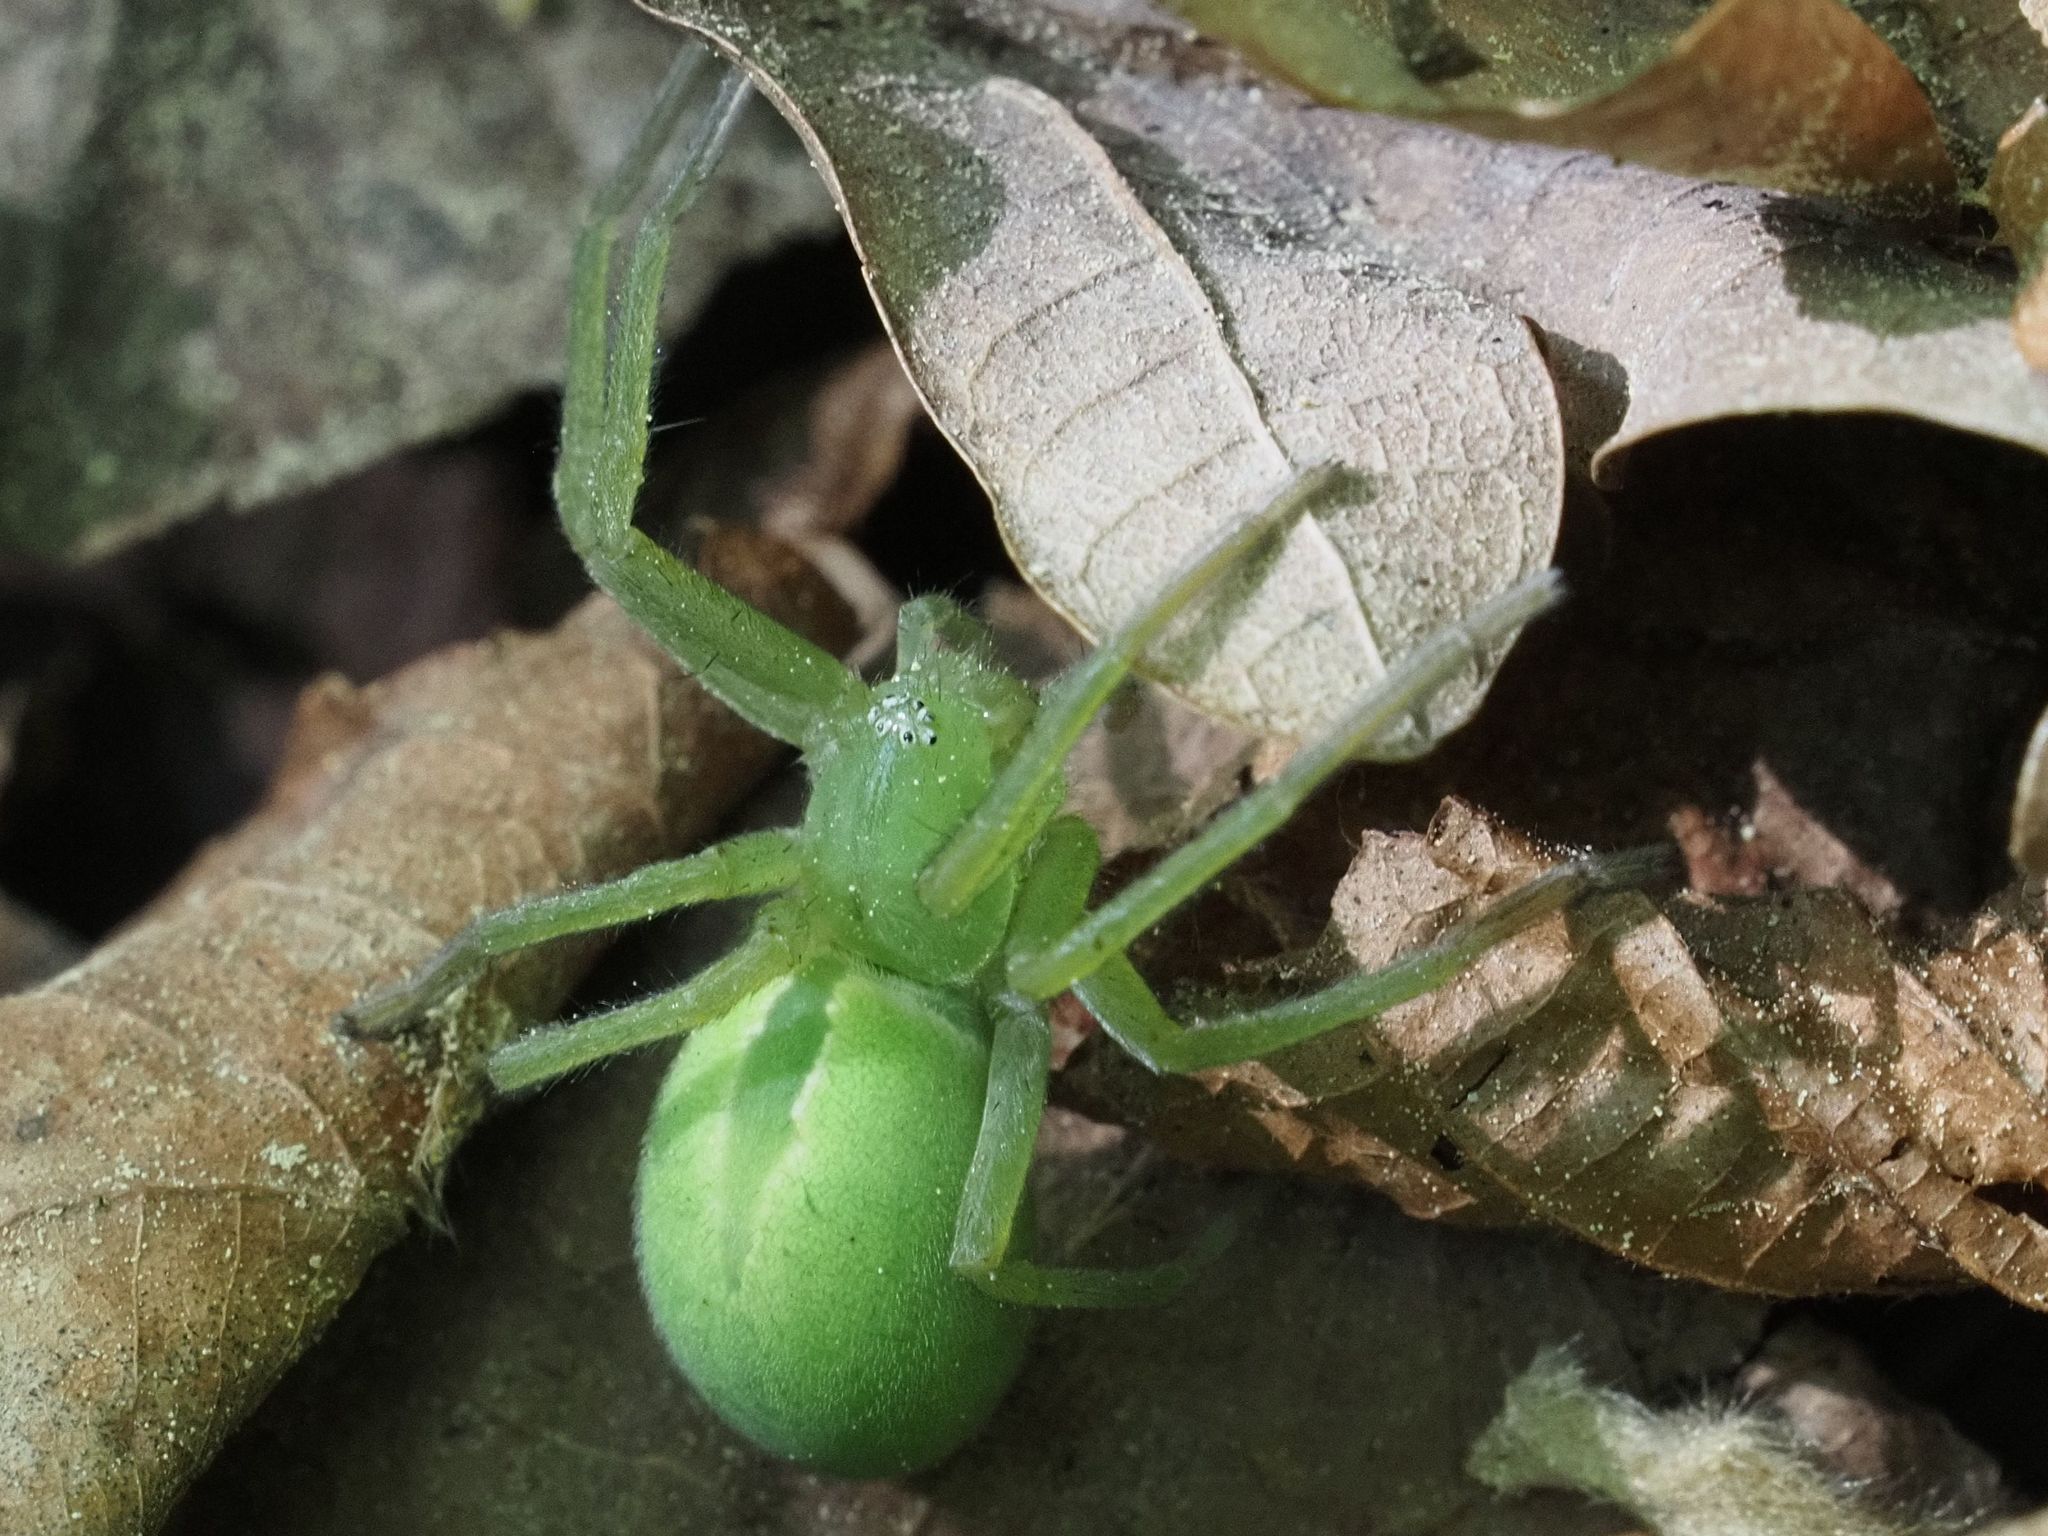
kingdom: Animalia
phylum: Arthropoda
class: Arachnida
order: Araneae
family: Sparassidae
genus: Micrommata
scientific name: Micrommata virescens
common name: Green spider
